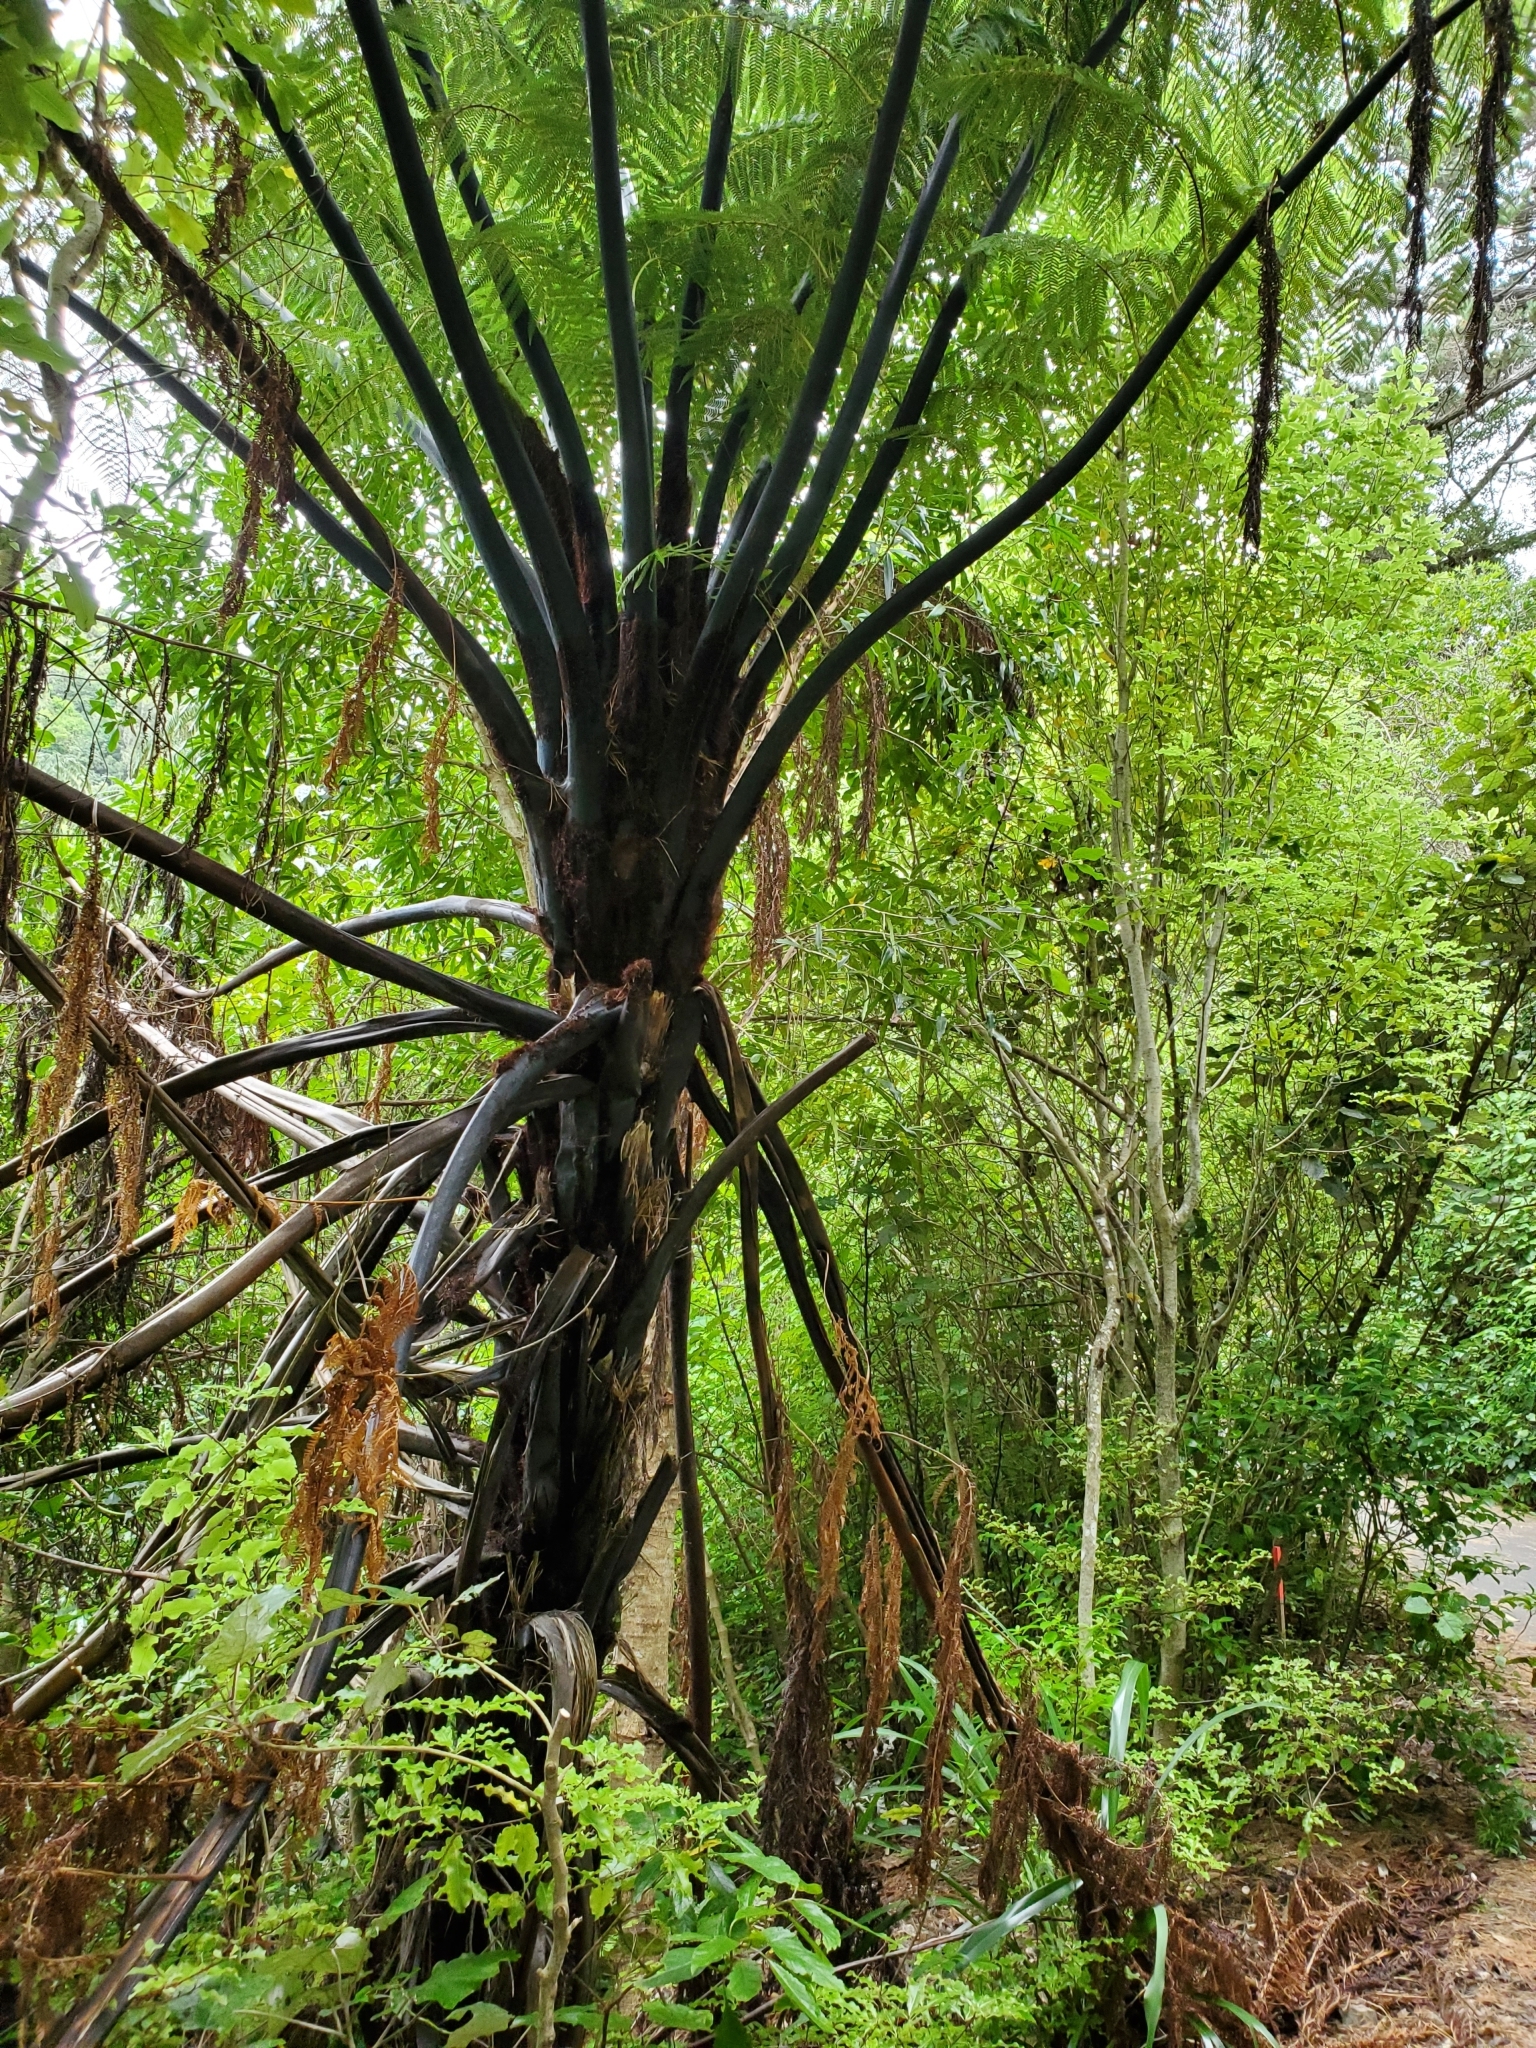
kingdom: Plantae
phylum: Tracheophyta
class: Polypodiopsida
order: Cyatheales
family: Cyatheaceae
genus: Sphaeropteris
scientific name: Sphaeropteris medullaris
